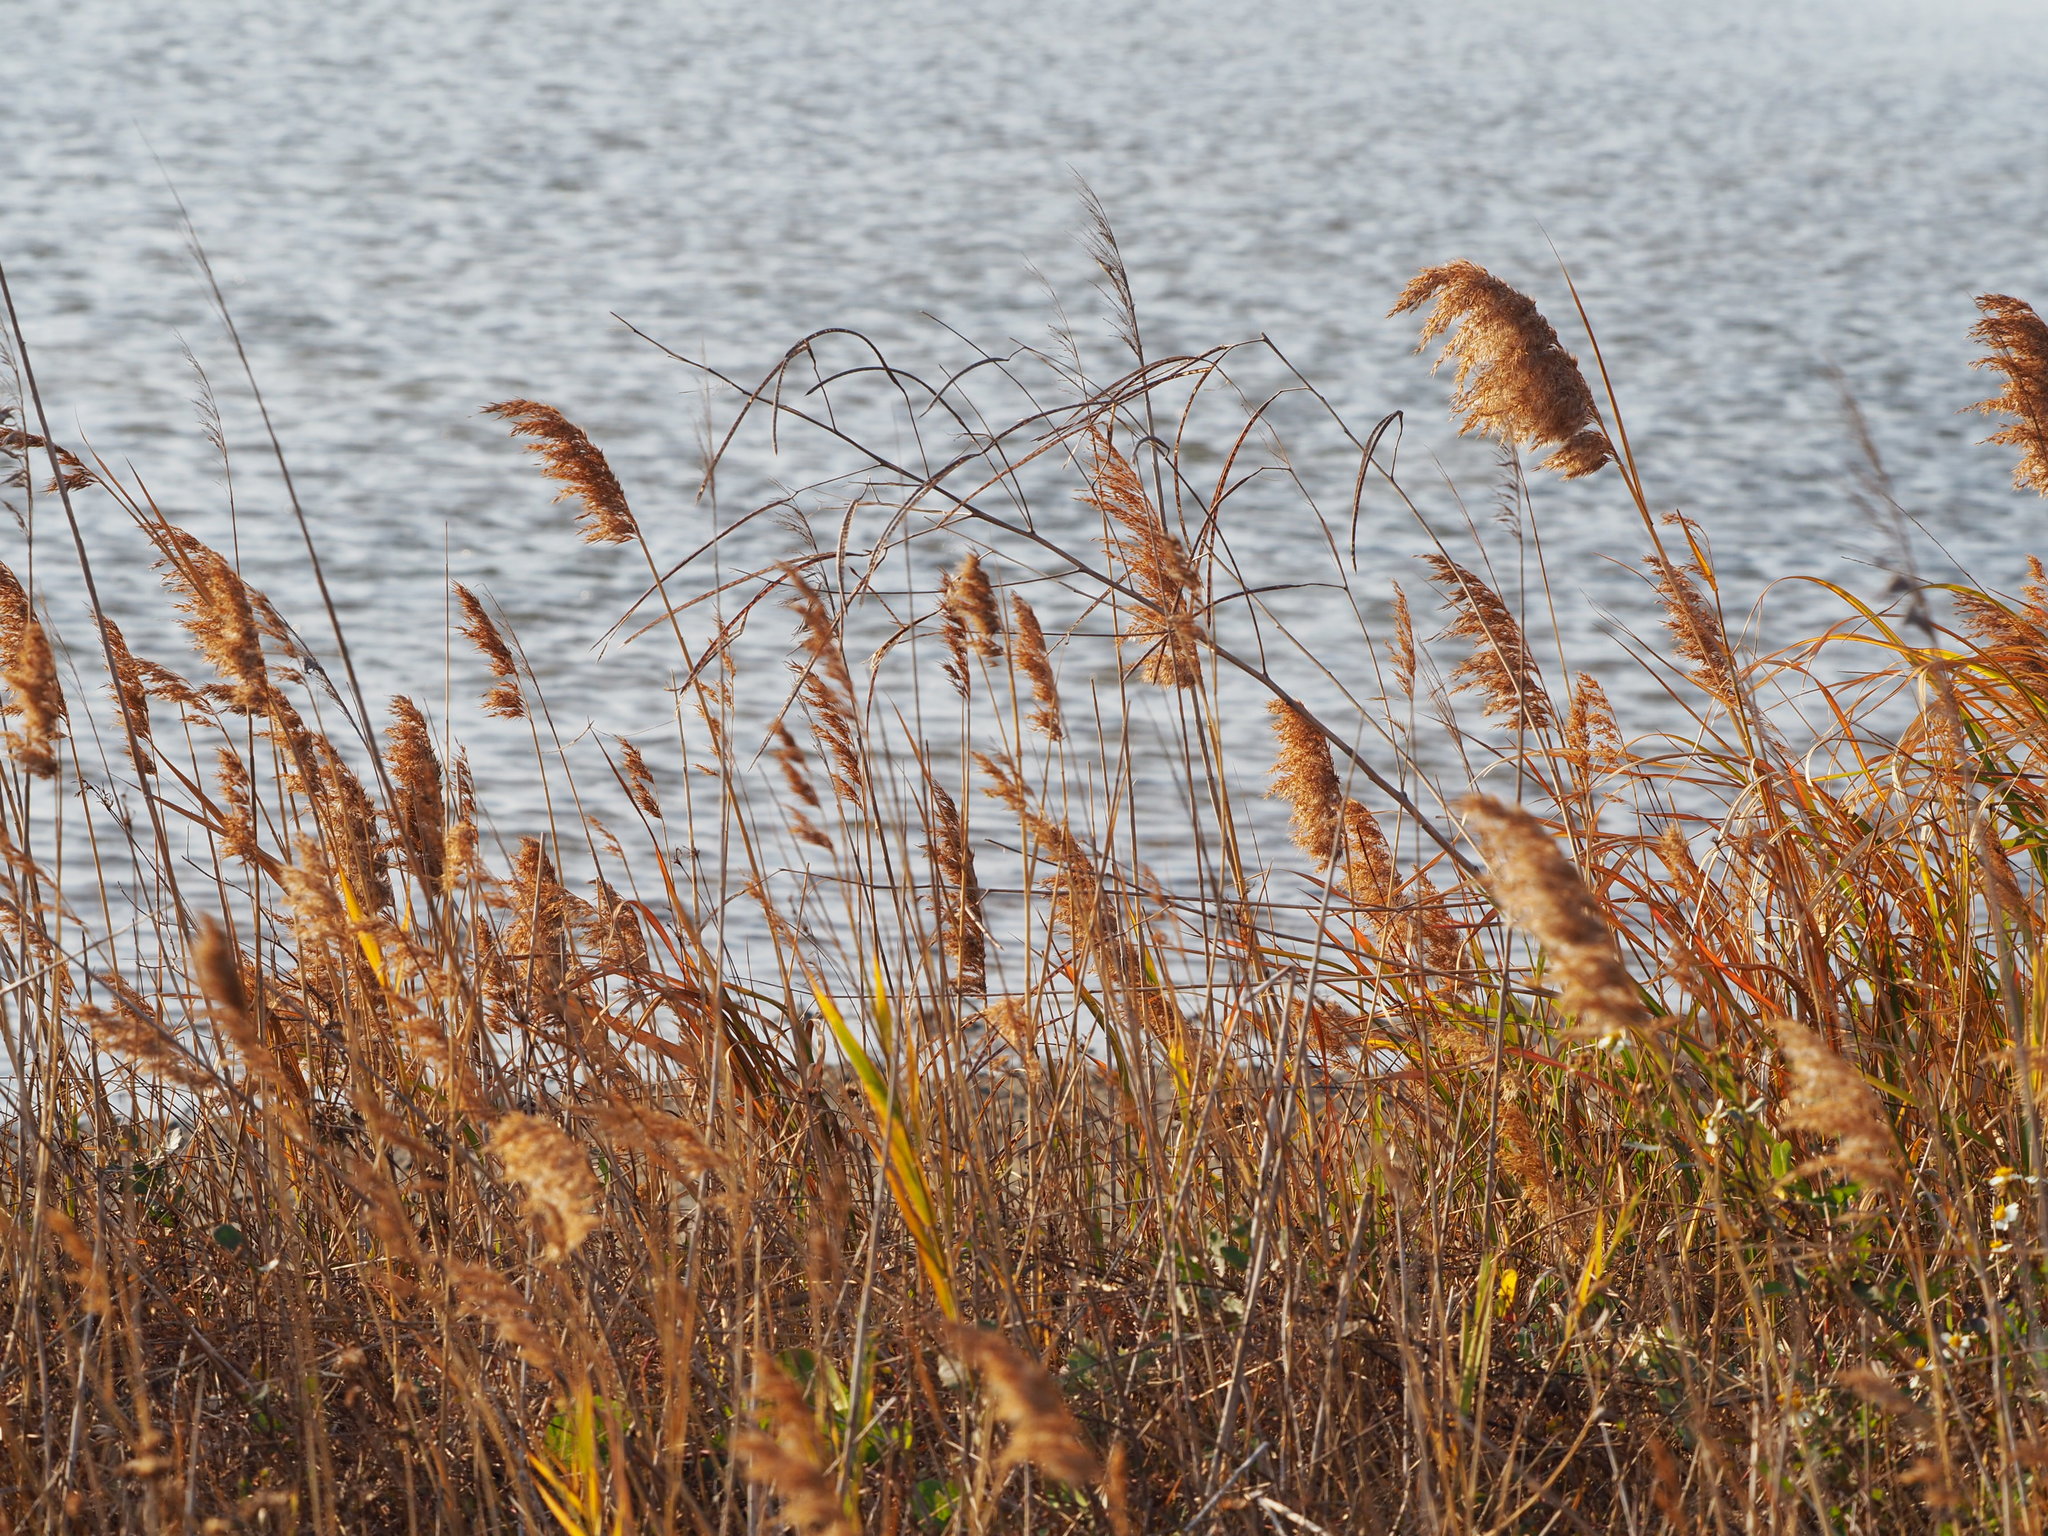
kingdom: Plantae
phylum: Tracheophyta
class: Liliopsida
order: Poales
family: Poaceae
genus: Phragmites
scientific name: Phragmites australis
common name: Common reed
